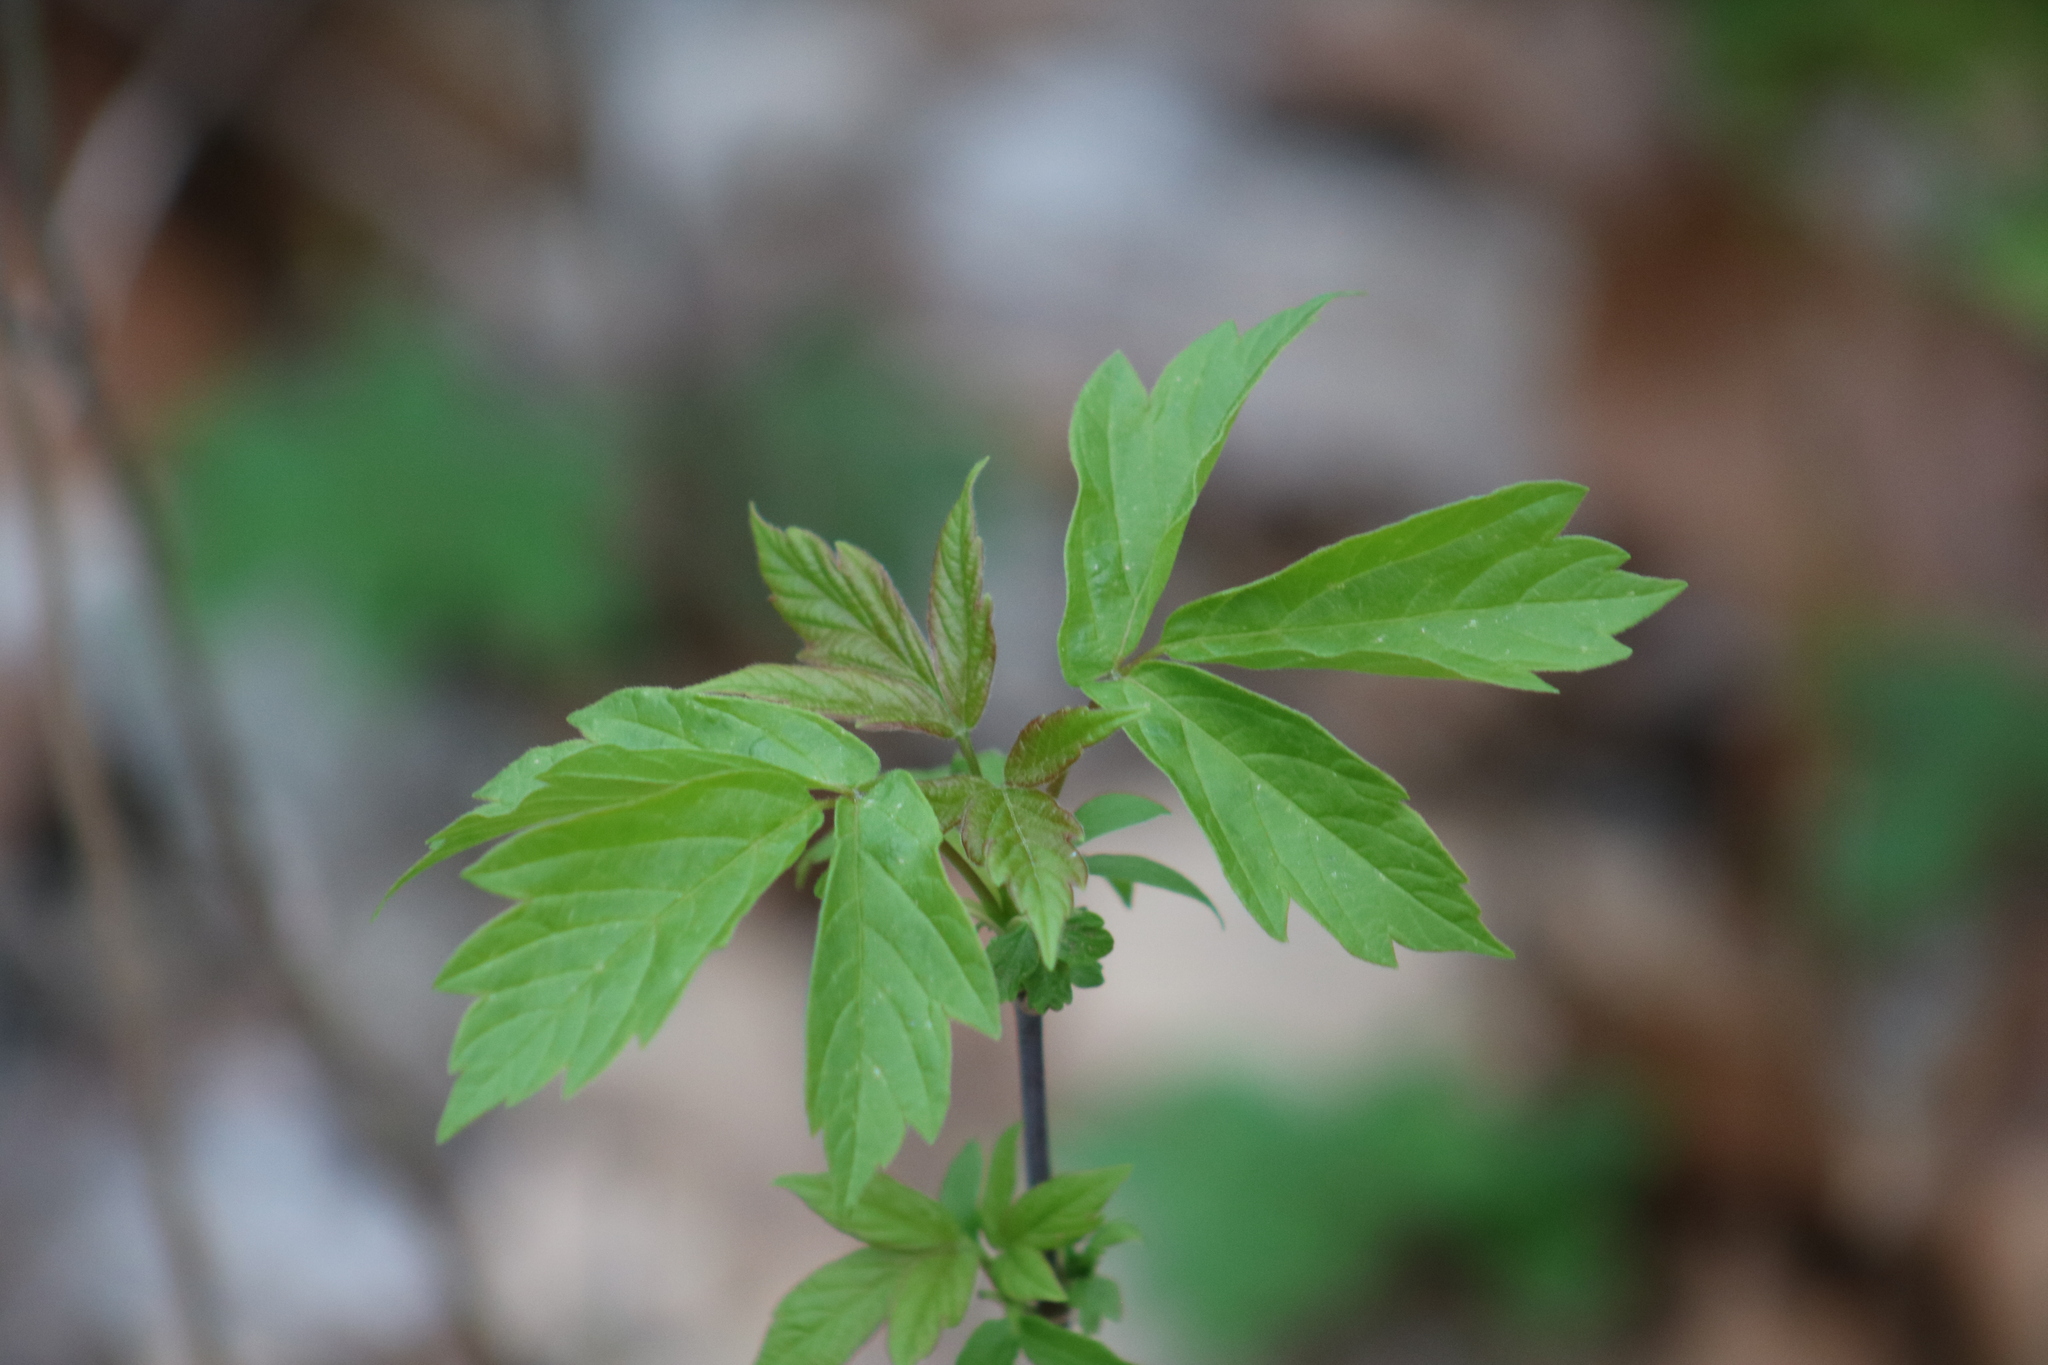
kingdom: Plantae
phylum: Tracheophyta
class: Magnoliopsida
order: Sapindales
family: Sapindaceae
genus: Acer
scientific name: Acer negundo
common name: Ashleaf maple
